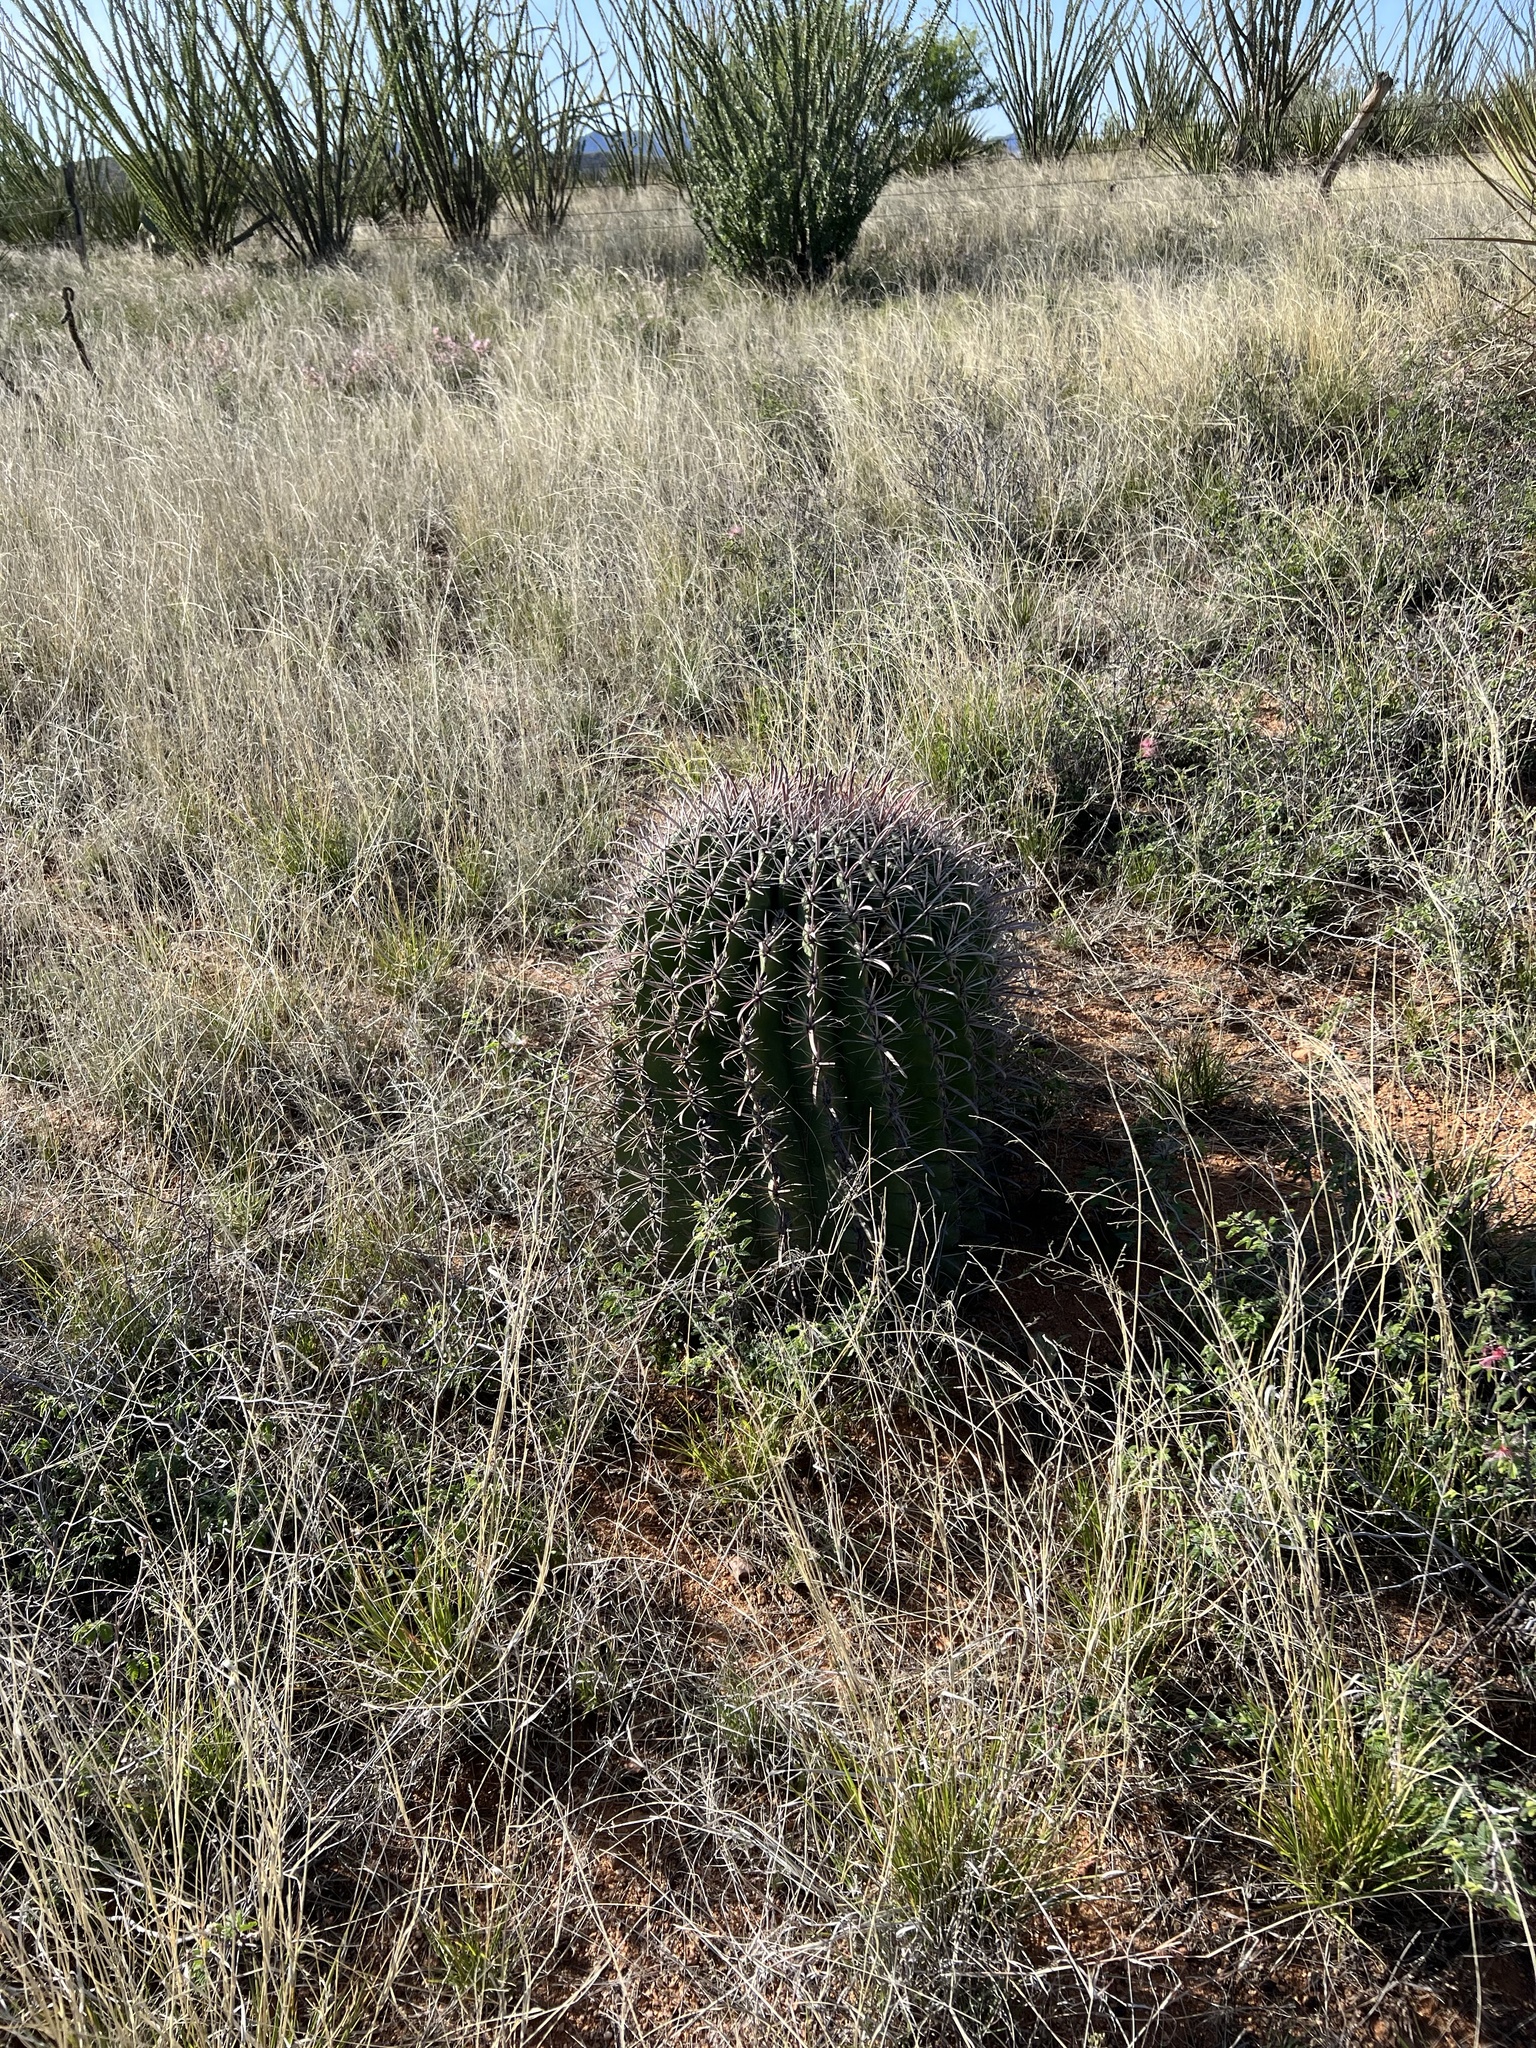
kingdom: Plantae
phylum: Tracheophyta
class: Magnoliopsida
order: Caryophyllales
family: Cactaceae
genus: Ferocactus
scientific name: Ferocactus wislizeni
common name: Candy barrel cactus
